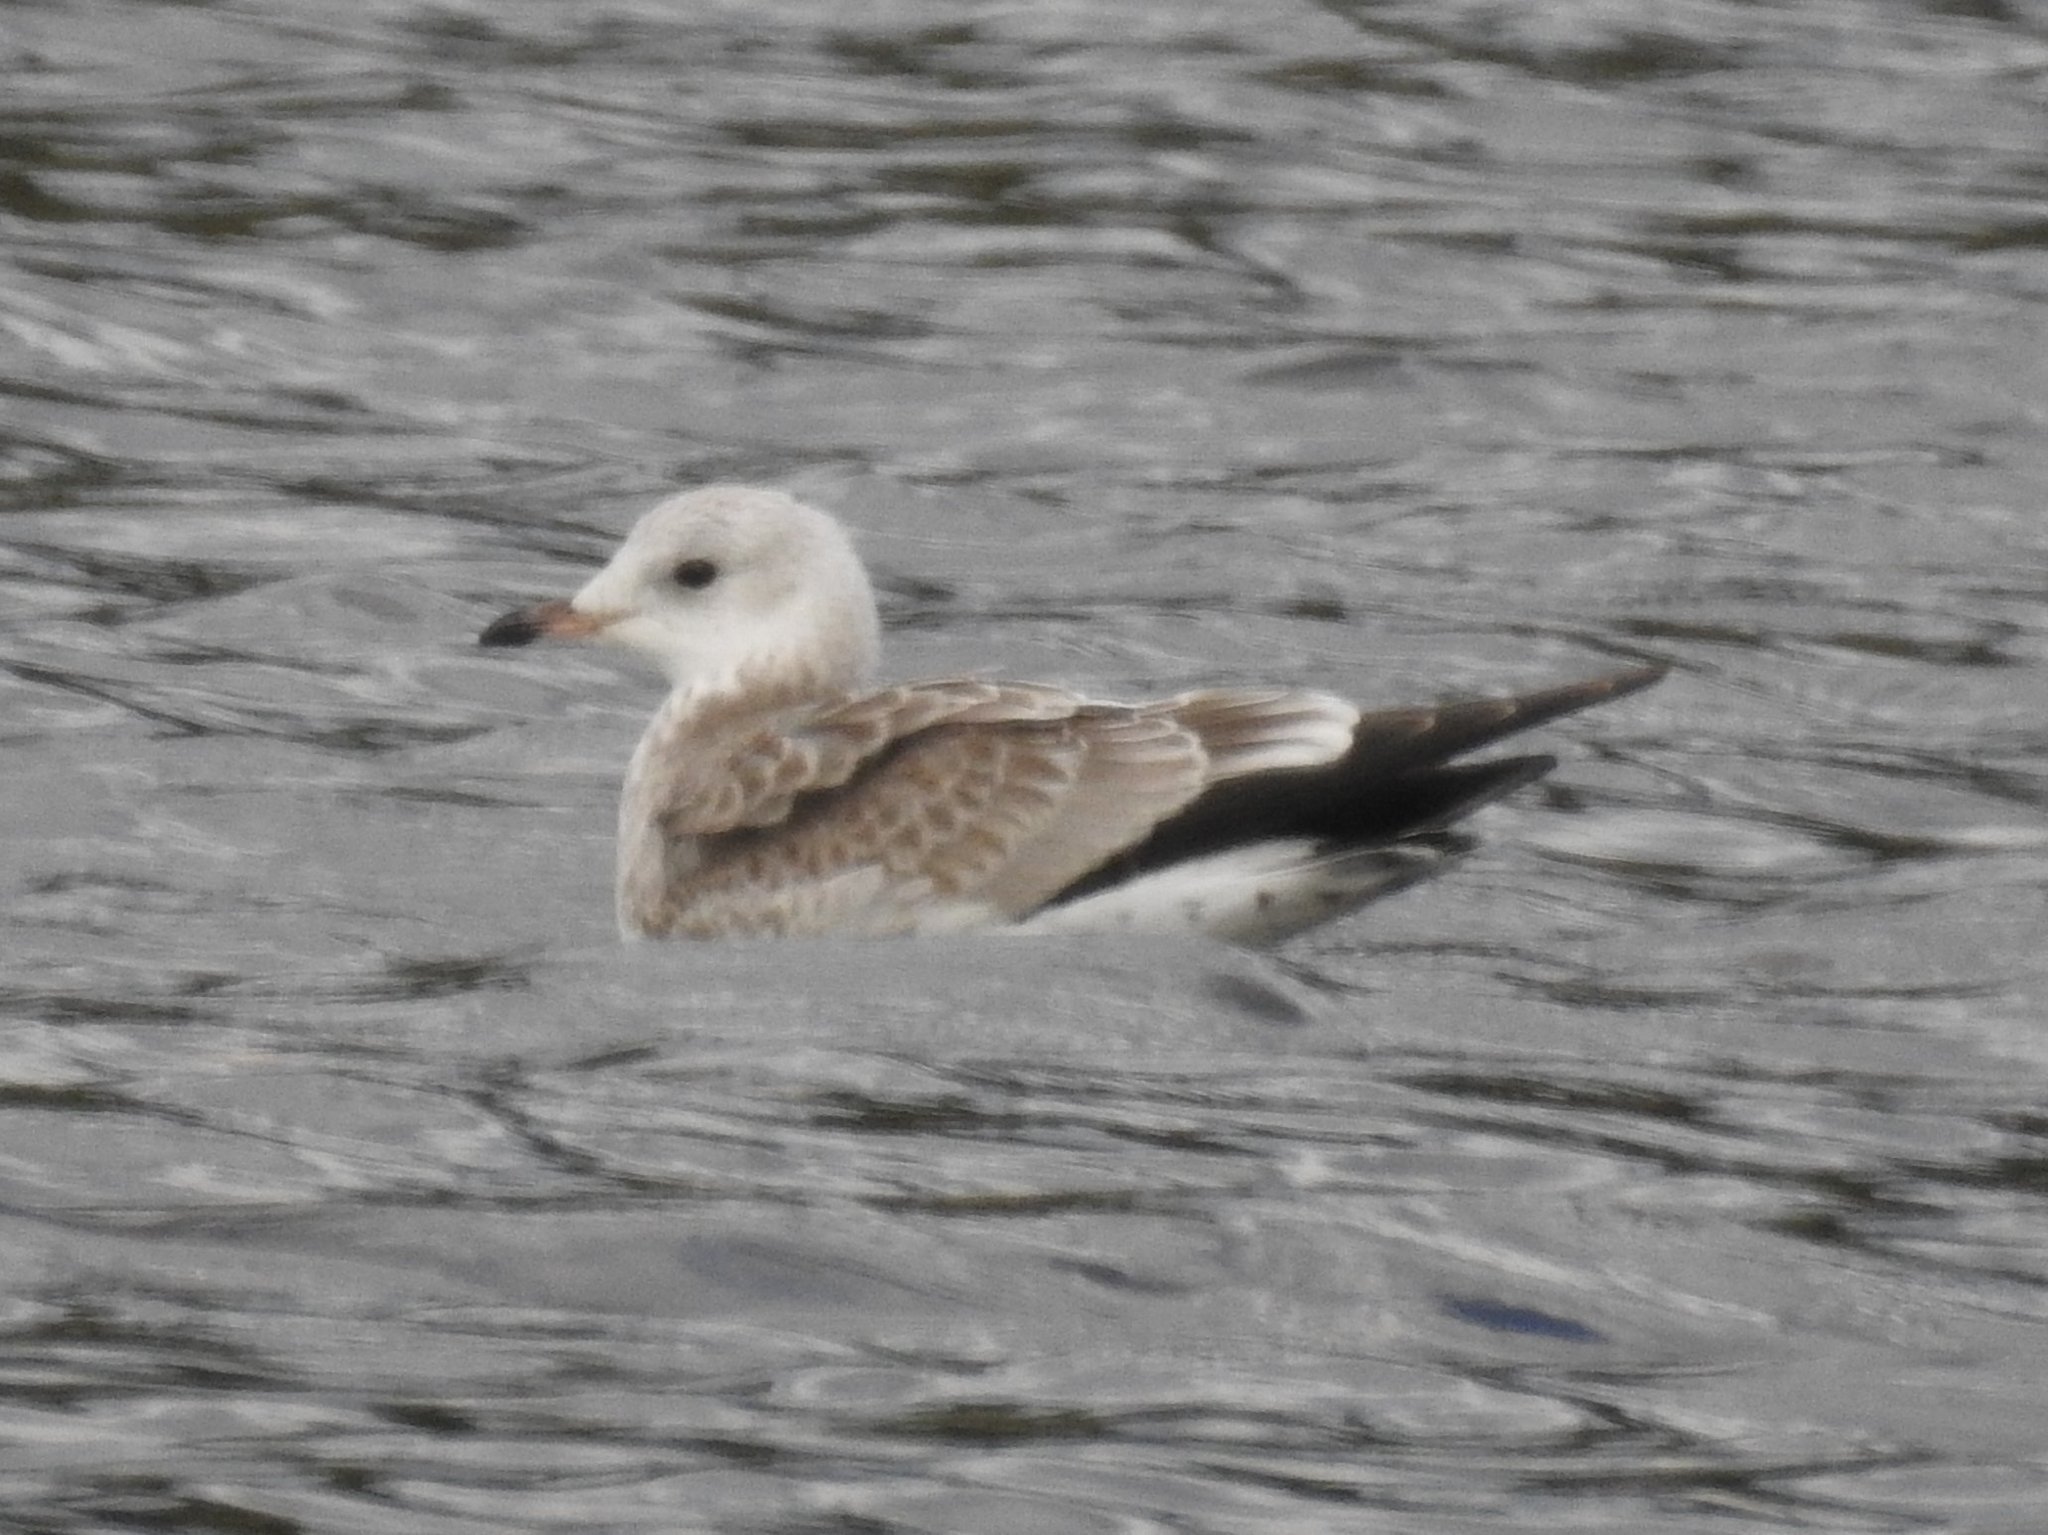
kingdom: Animalia
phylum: Chordata
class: Aves
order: Charadriiformes
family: Laridae
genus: Larus
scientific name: Larus canus
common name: Mew gull
